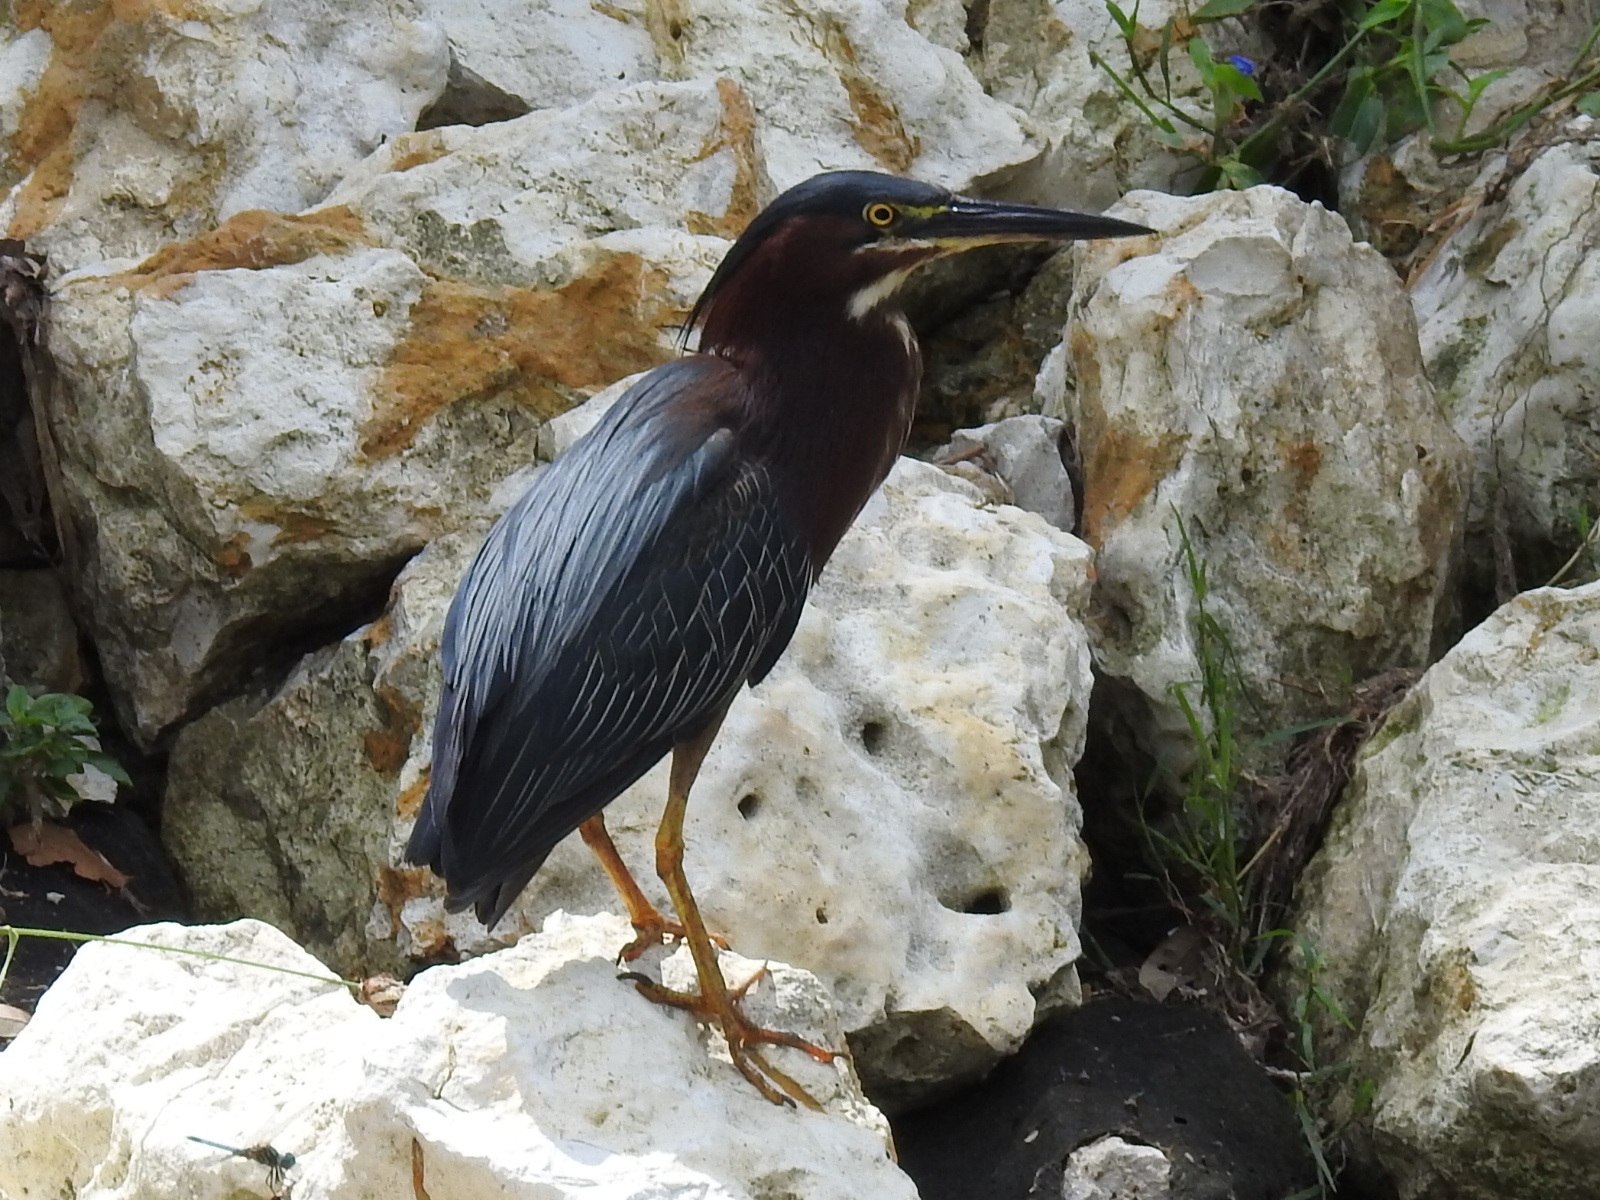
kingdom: Animalia
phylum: Chordata
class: Aves
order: Pelecaniformes
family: Ardeidae
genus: Butorides
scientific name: Butorides virescens
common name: Green heron
